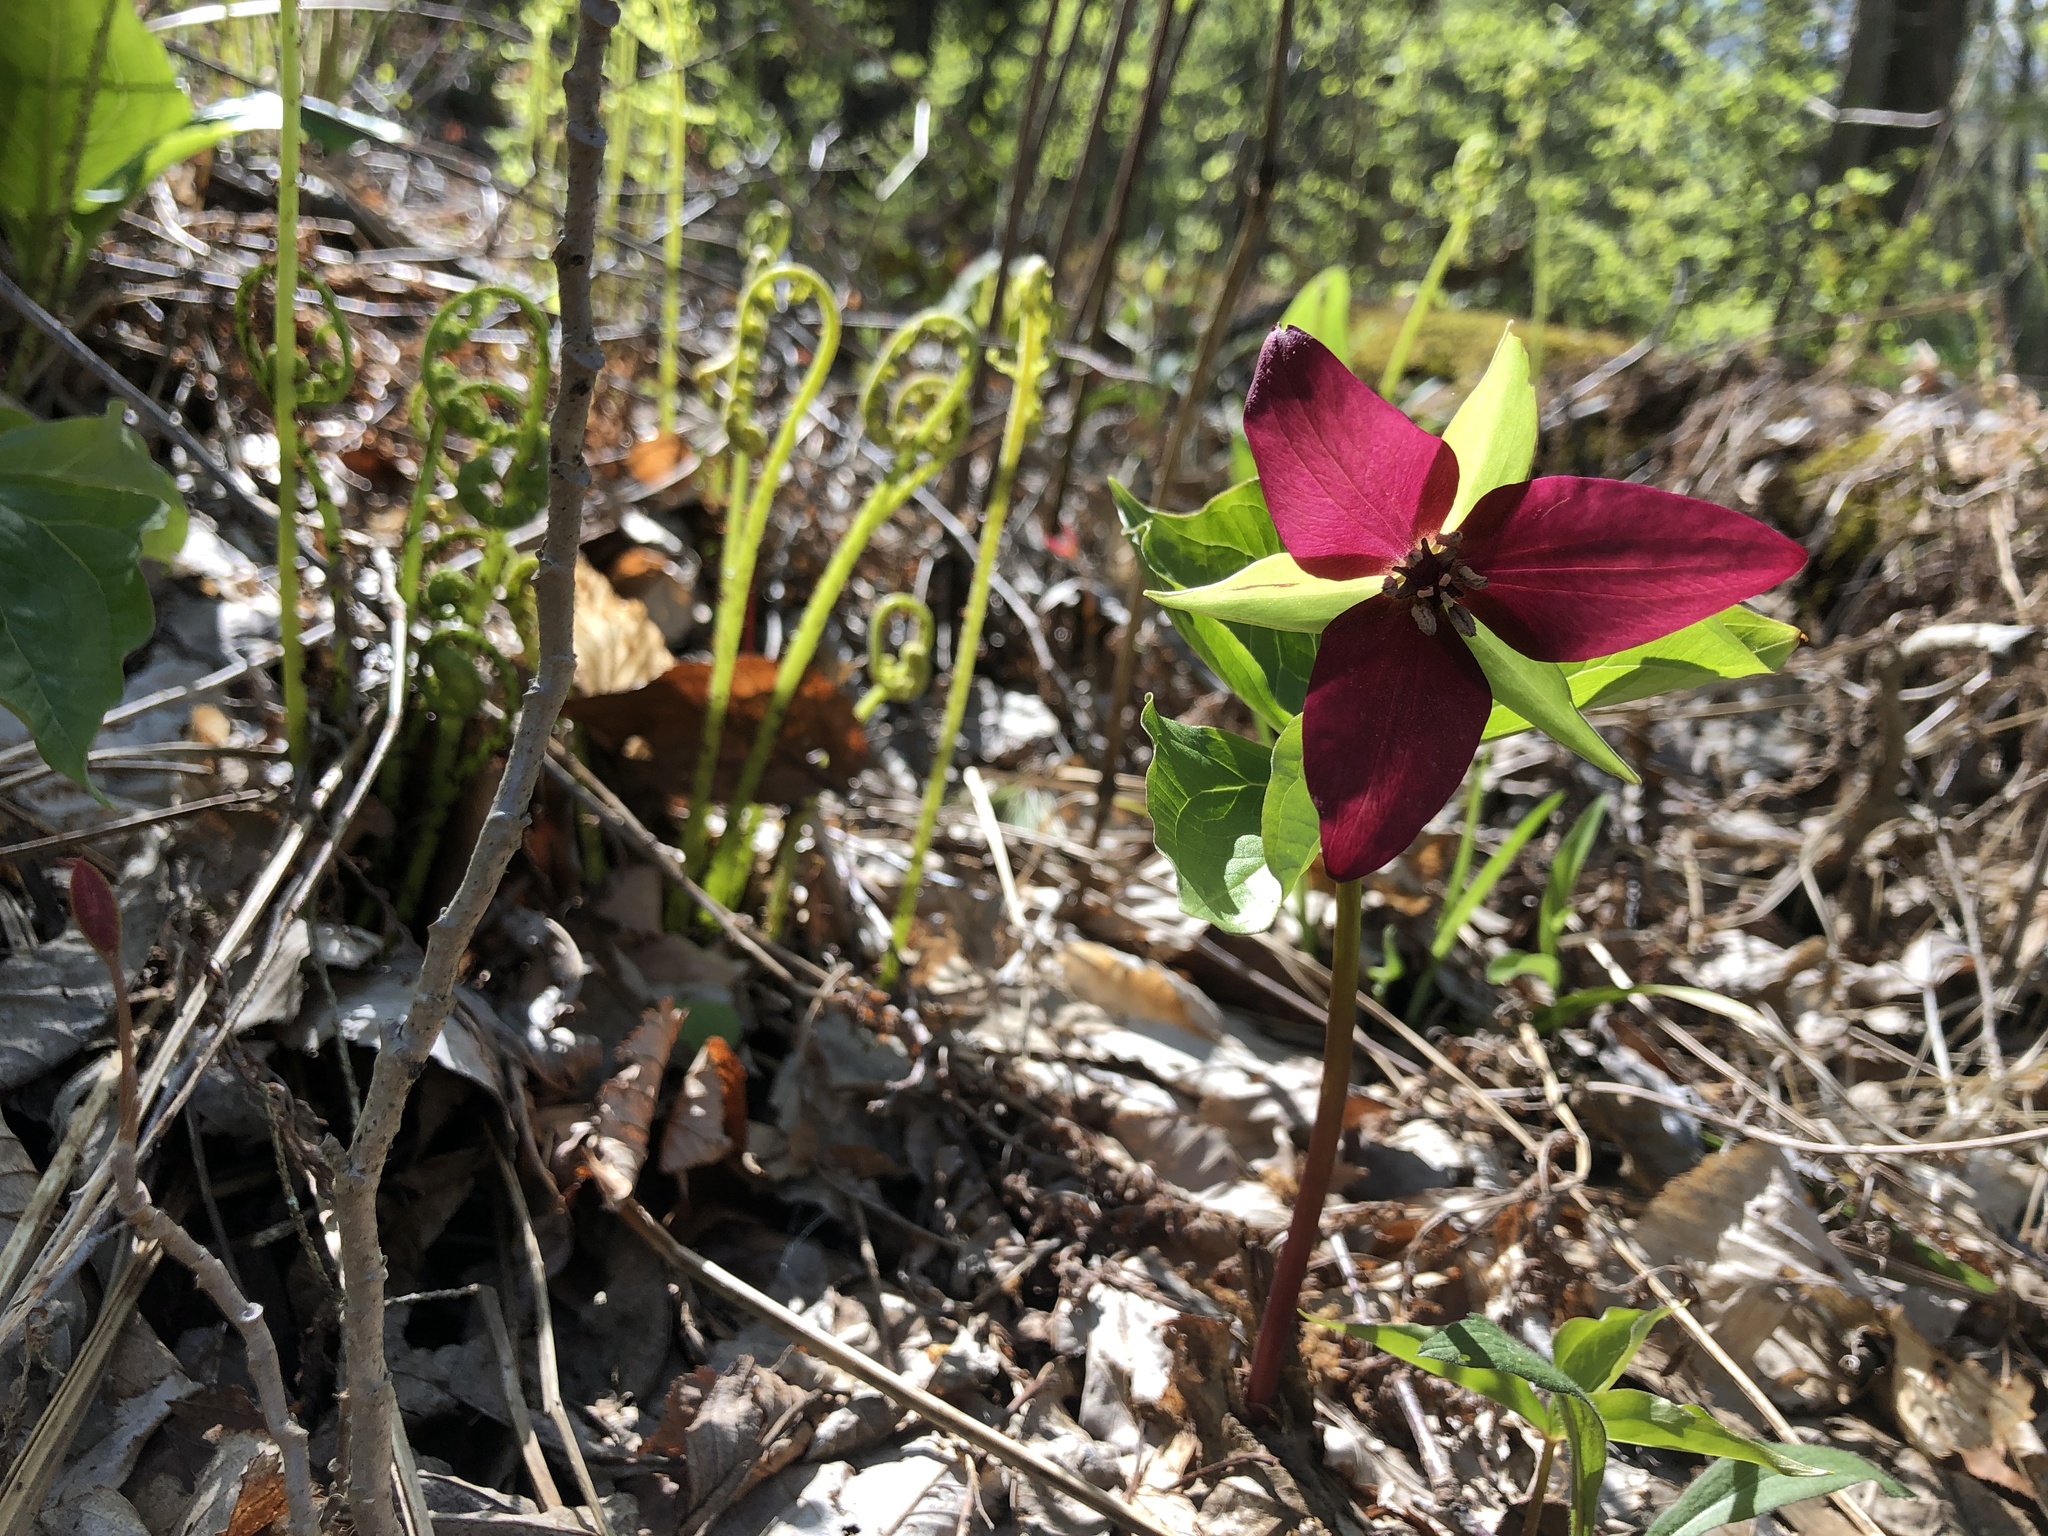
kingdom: Plantae
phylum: Tracheophyta
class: Liliopsida
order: Liliales
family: Melanthiaceae
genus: Trillium
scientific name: Trillium erectum
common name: Purple trillium
